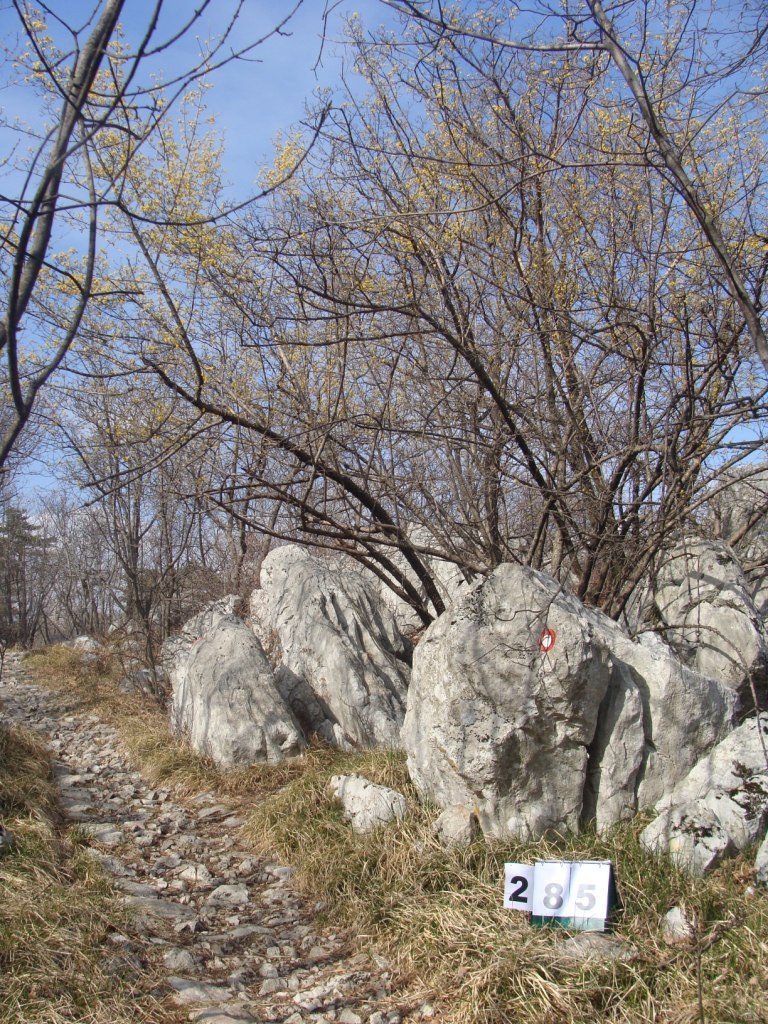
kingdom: Plantae
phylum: Tracheophyta
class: Magnoliopsida
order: Cornales
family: Cornaceae
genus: Cornus
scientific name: Cornus mas
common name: Cornelian-cherry
